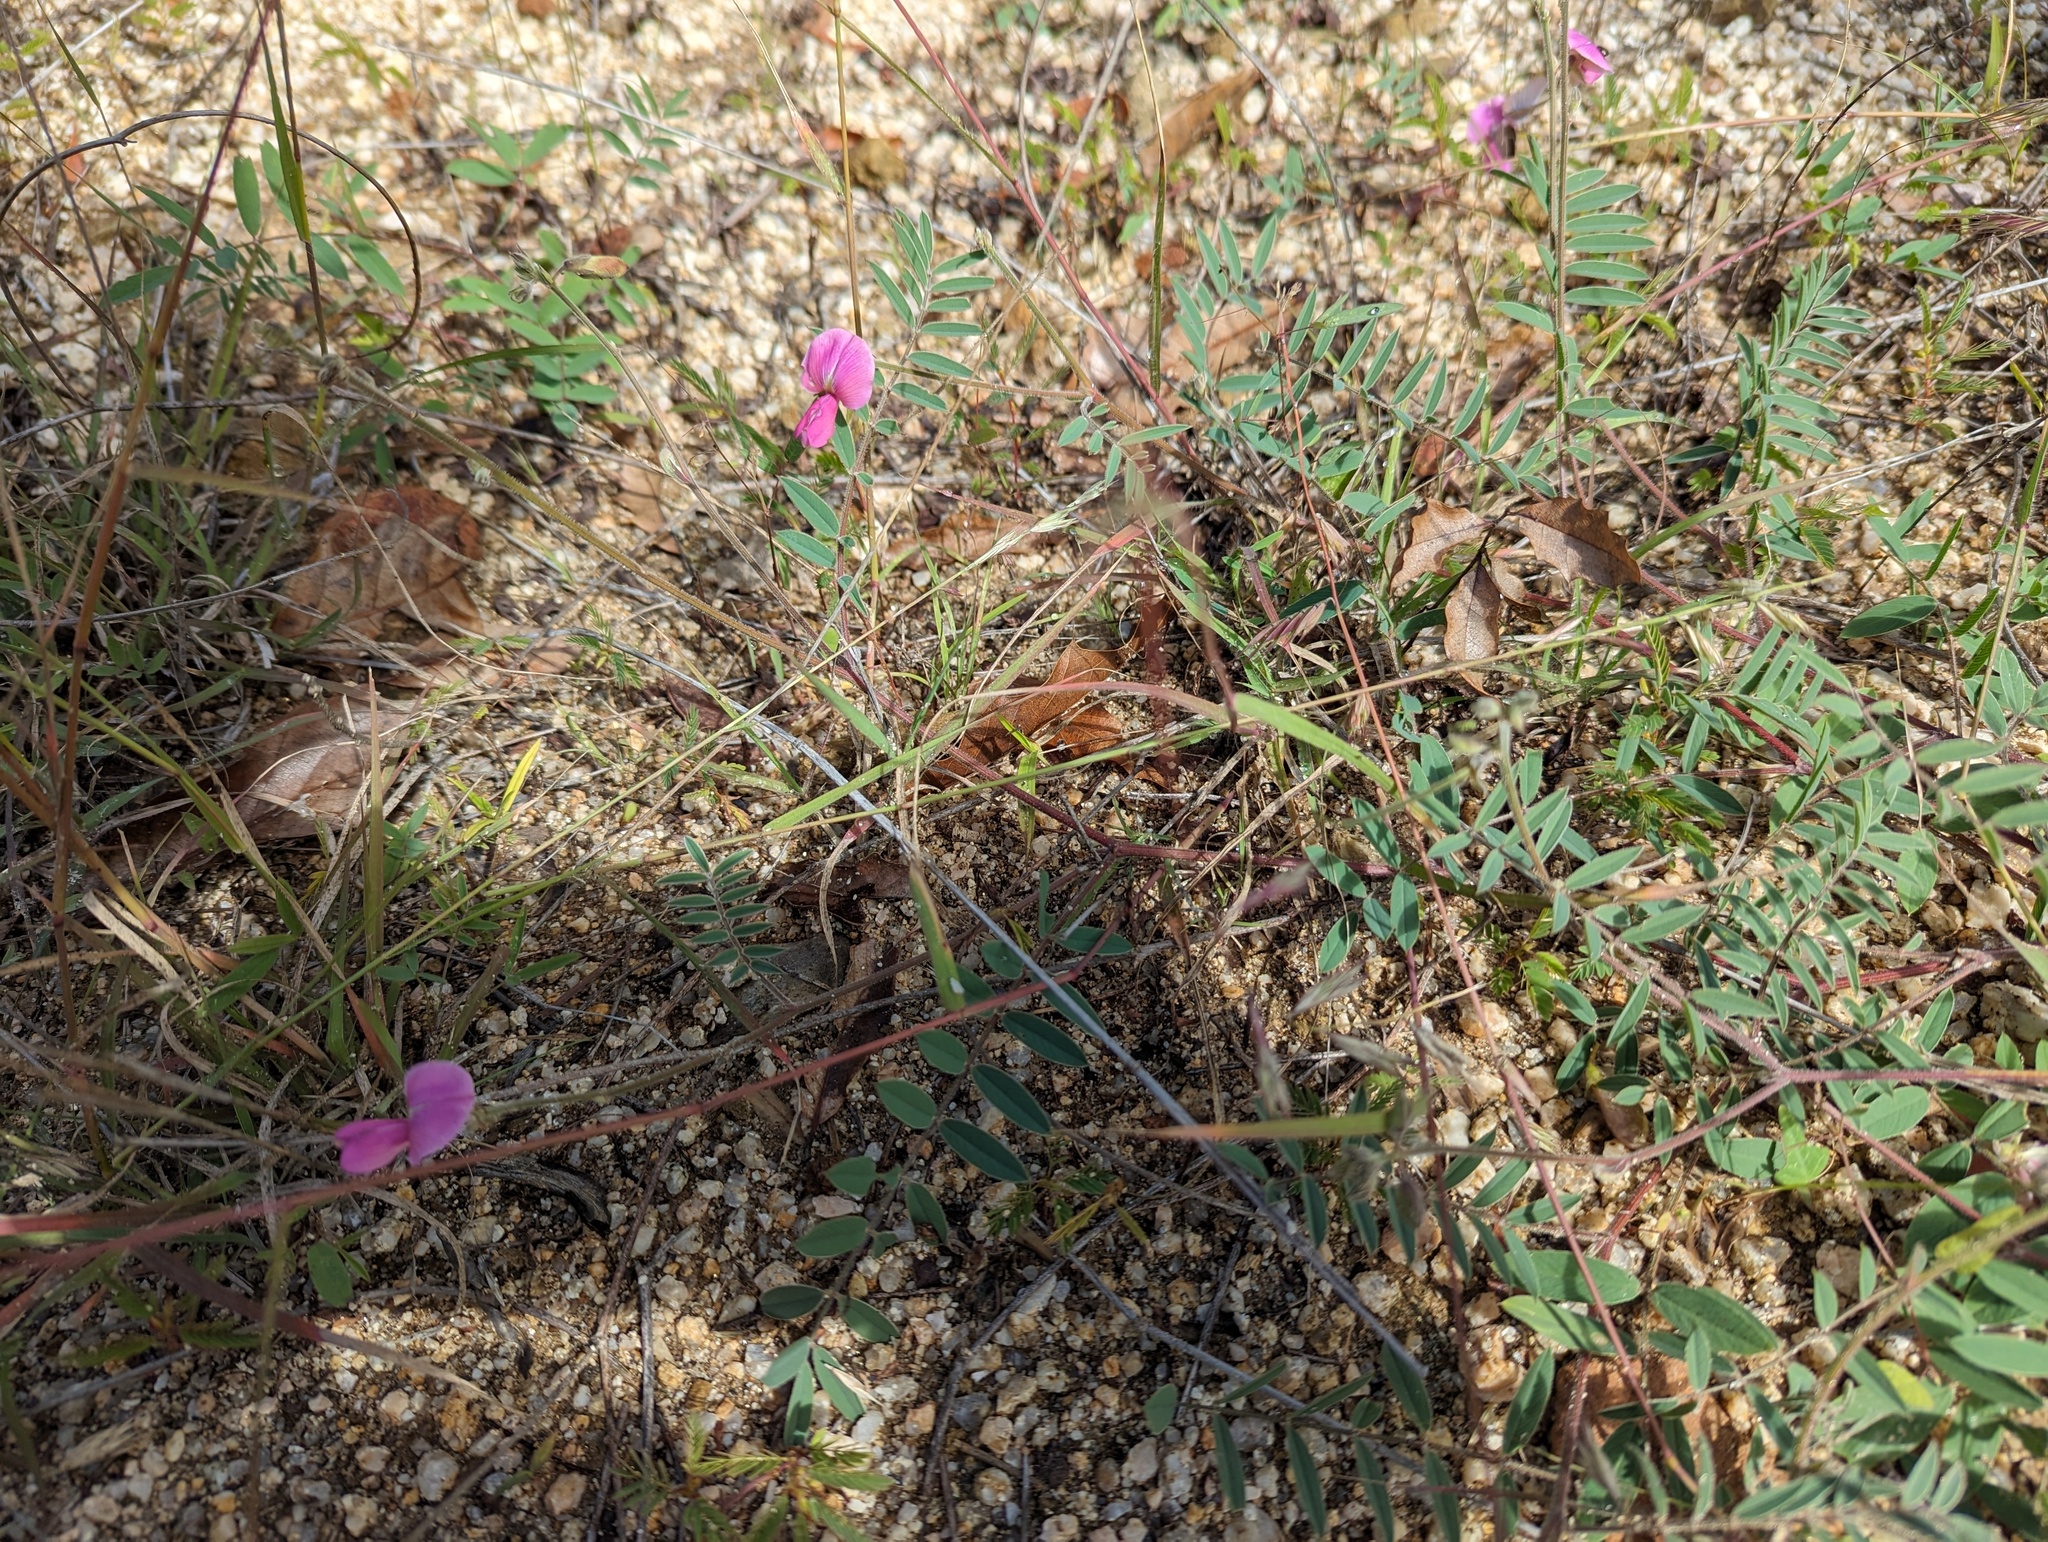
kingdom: Plantae
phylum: Tracheophyta
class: Magnoliopsida
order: Fabales
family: Fabaceae
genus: Tephrosia
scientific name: Tephrosia palmeri
